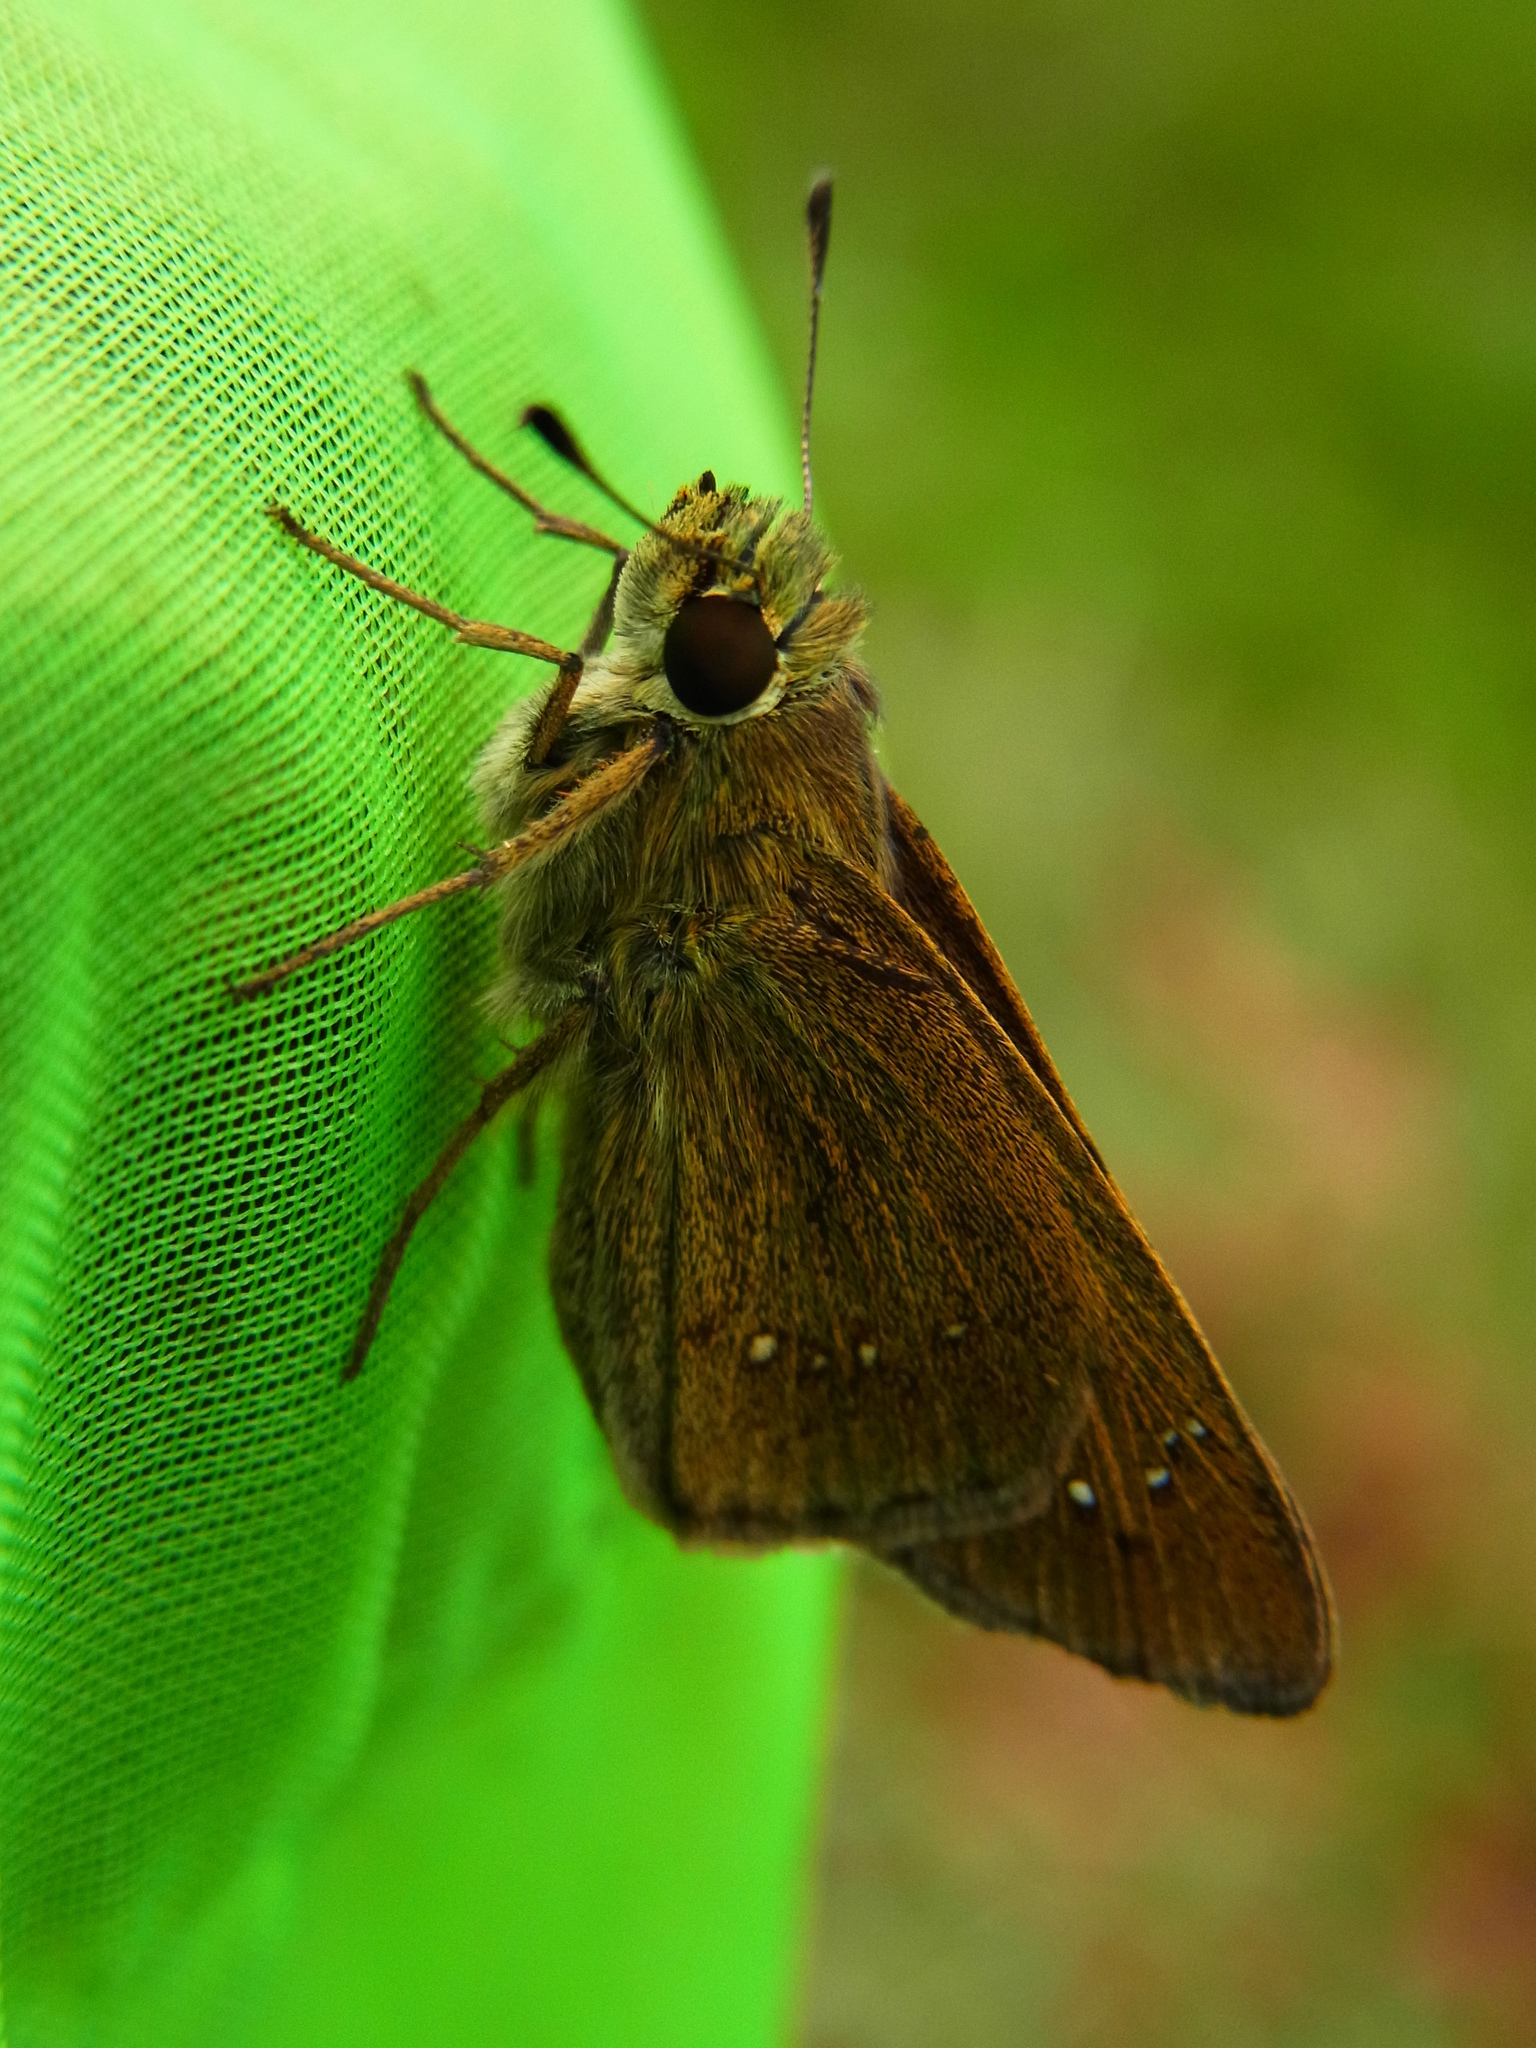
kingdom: Animalia
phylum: Arthropoda
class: Insecta
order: Lepidoptera
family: Hesperiidae
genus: Pelopidas
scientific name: Pelopidas mathias
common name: Black-branded swift
